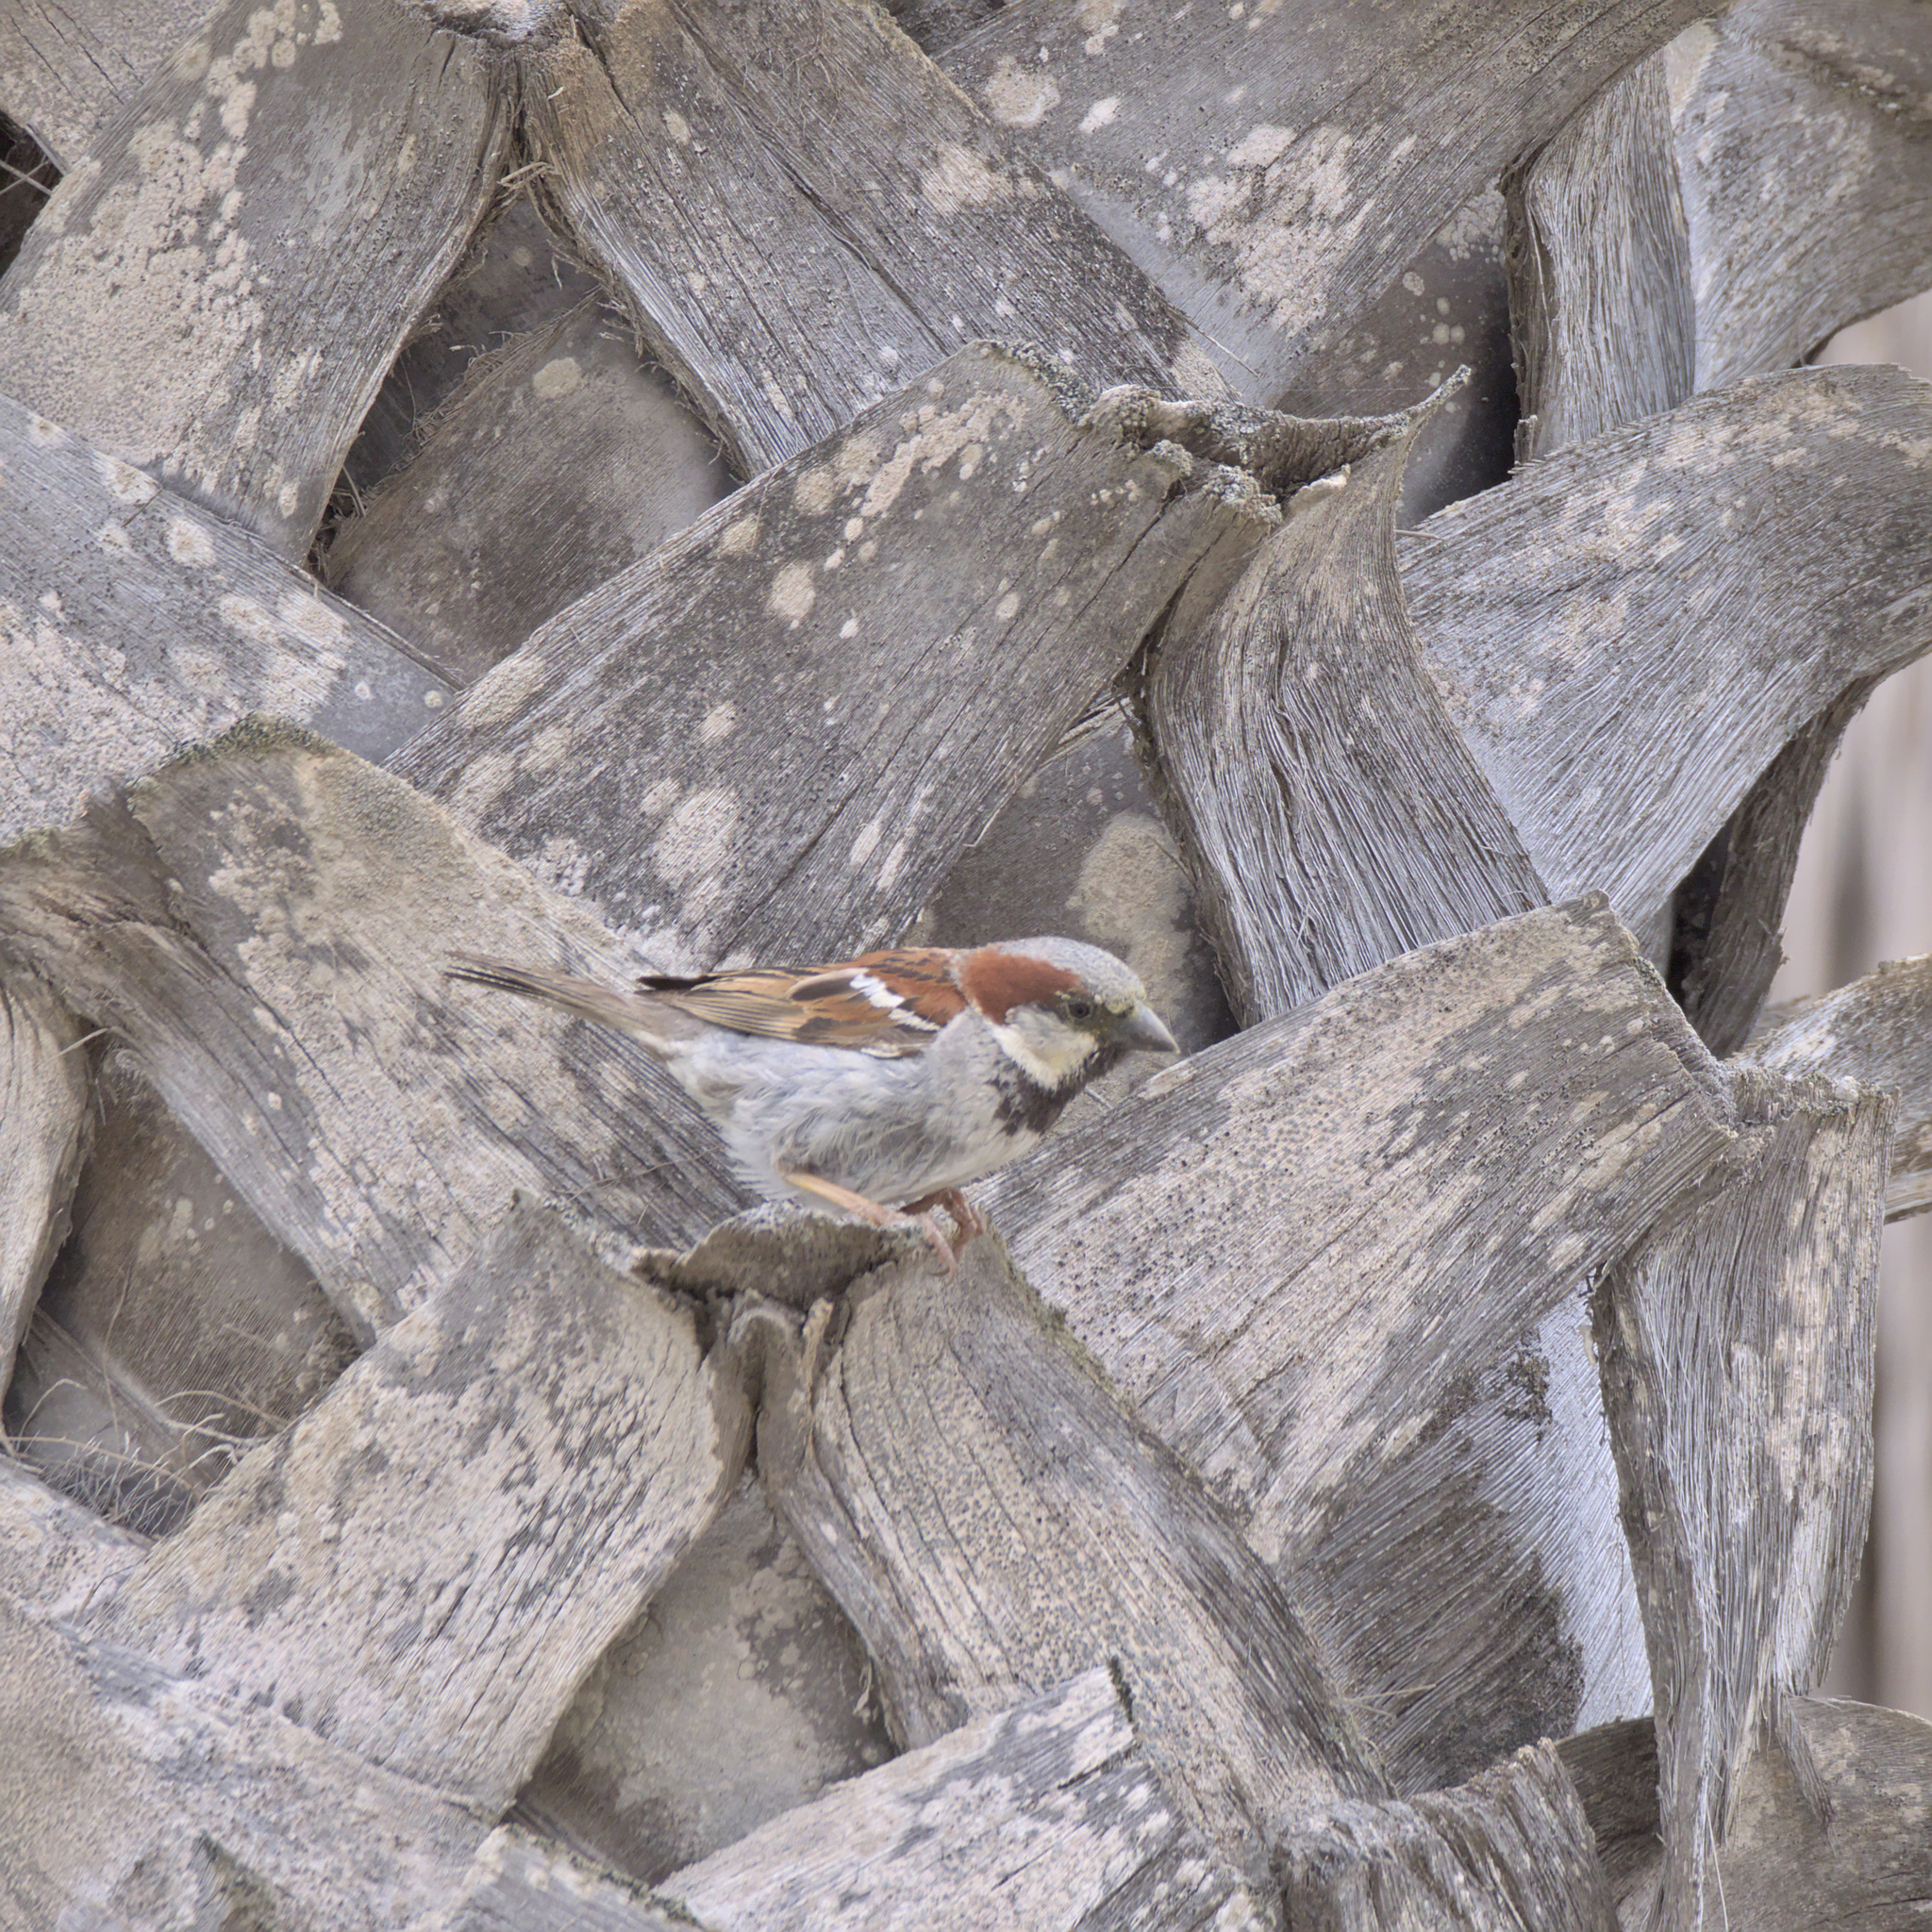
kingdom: Animalia
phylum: Chordata
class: Aves
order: Passeriformes
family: Passeridae
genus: Passer
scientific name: Passer domesticus
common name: House sparrow
